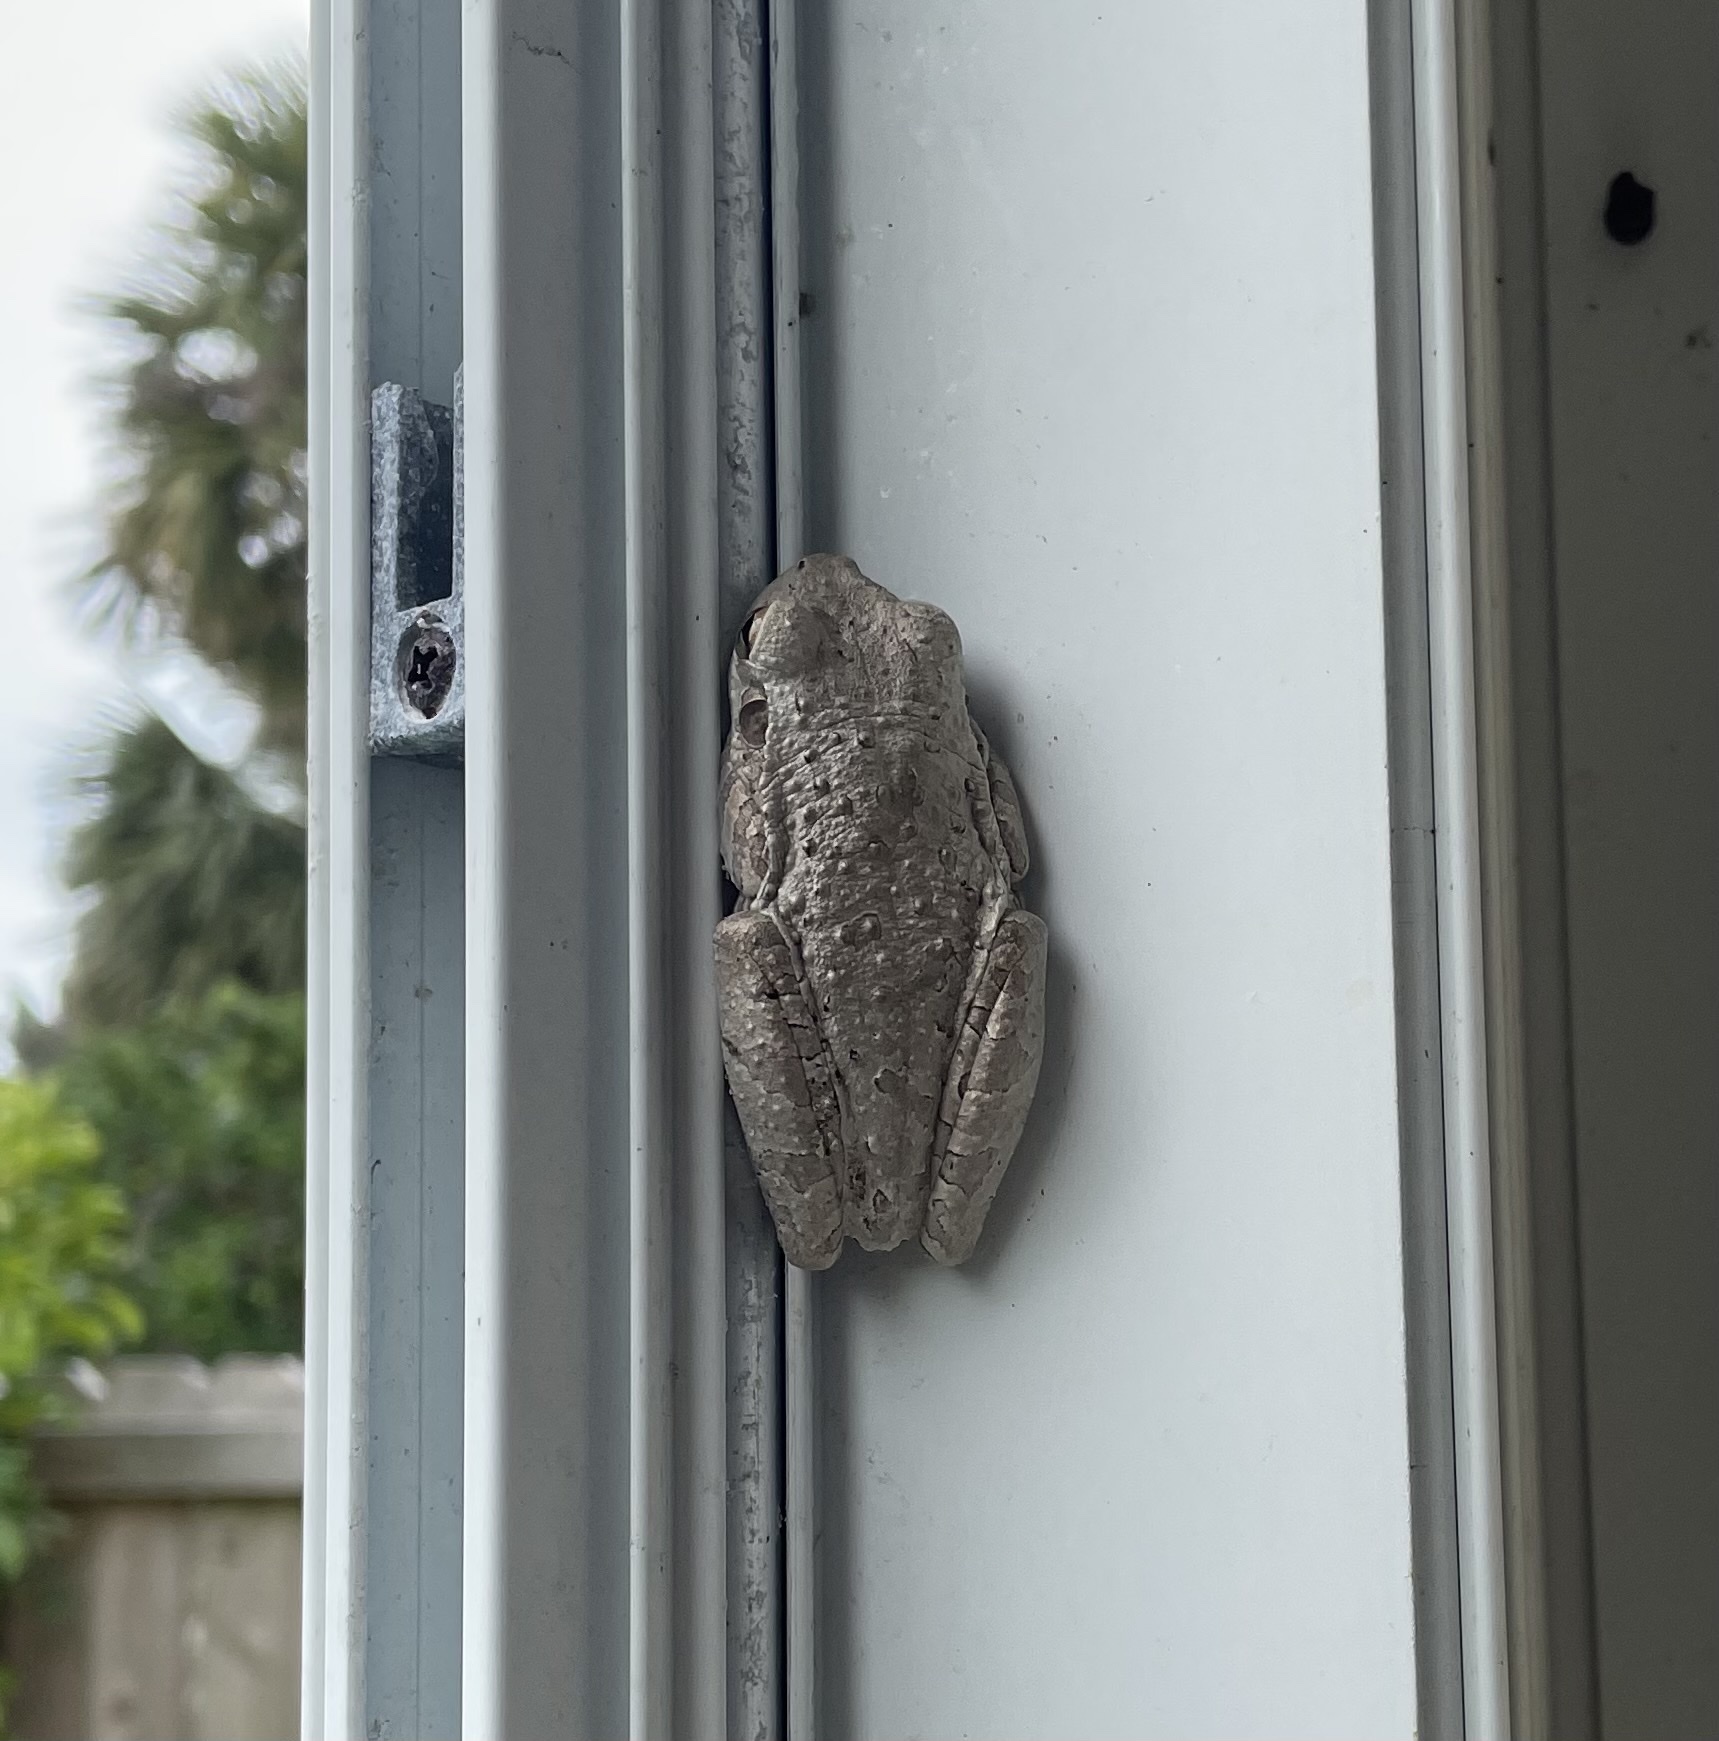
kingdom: Animalia
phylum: Chordata
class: Amphibia
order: Anura
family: Hylidae
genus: Osteopilus
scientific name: Osteopilus septentrionalis
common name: Cuban treefrog
